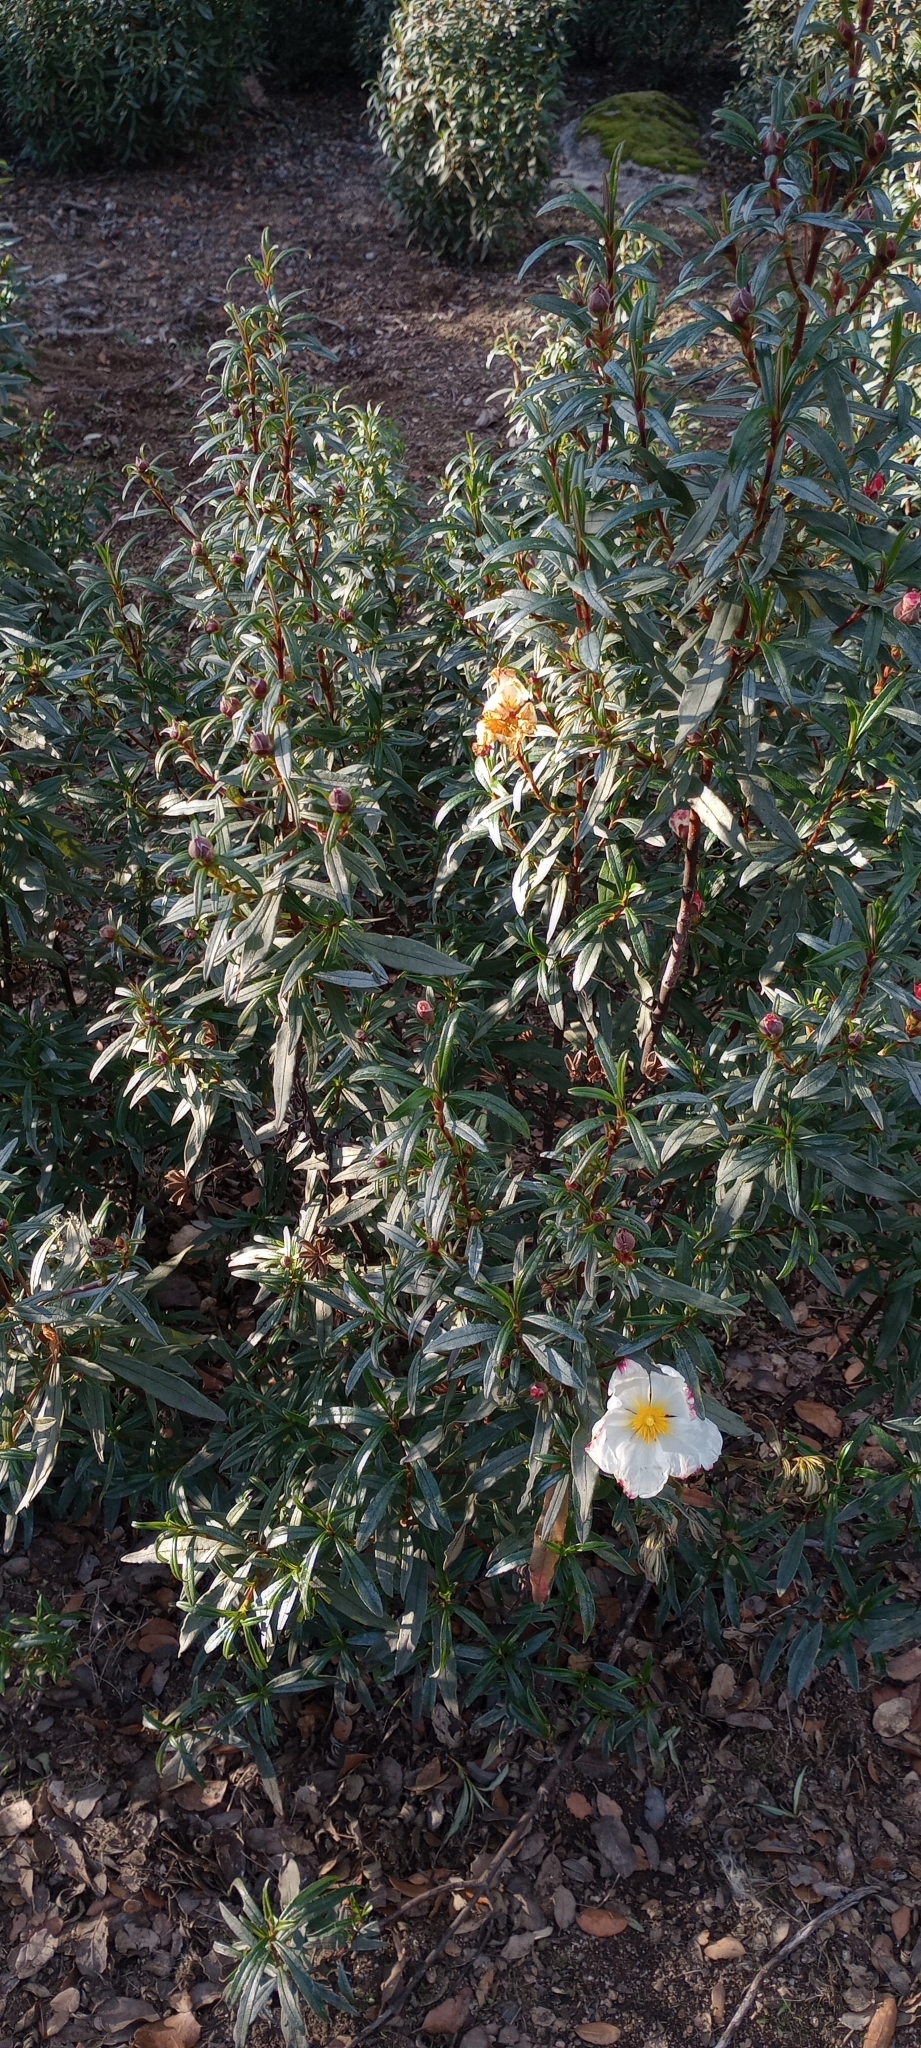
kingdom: Plantae
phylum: Tracheophyta
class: Magnoliopsida
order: Malvales
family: Cistaceae
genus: Cistus
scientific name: Cistus ladanifer
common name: Common gum cistus
